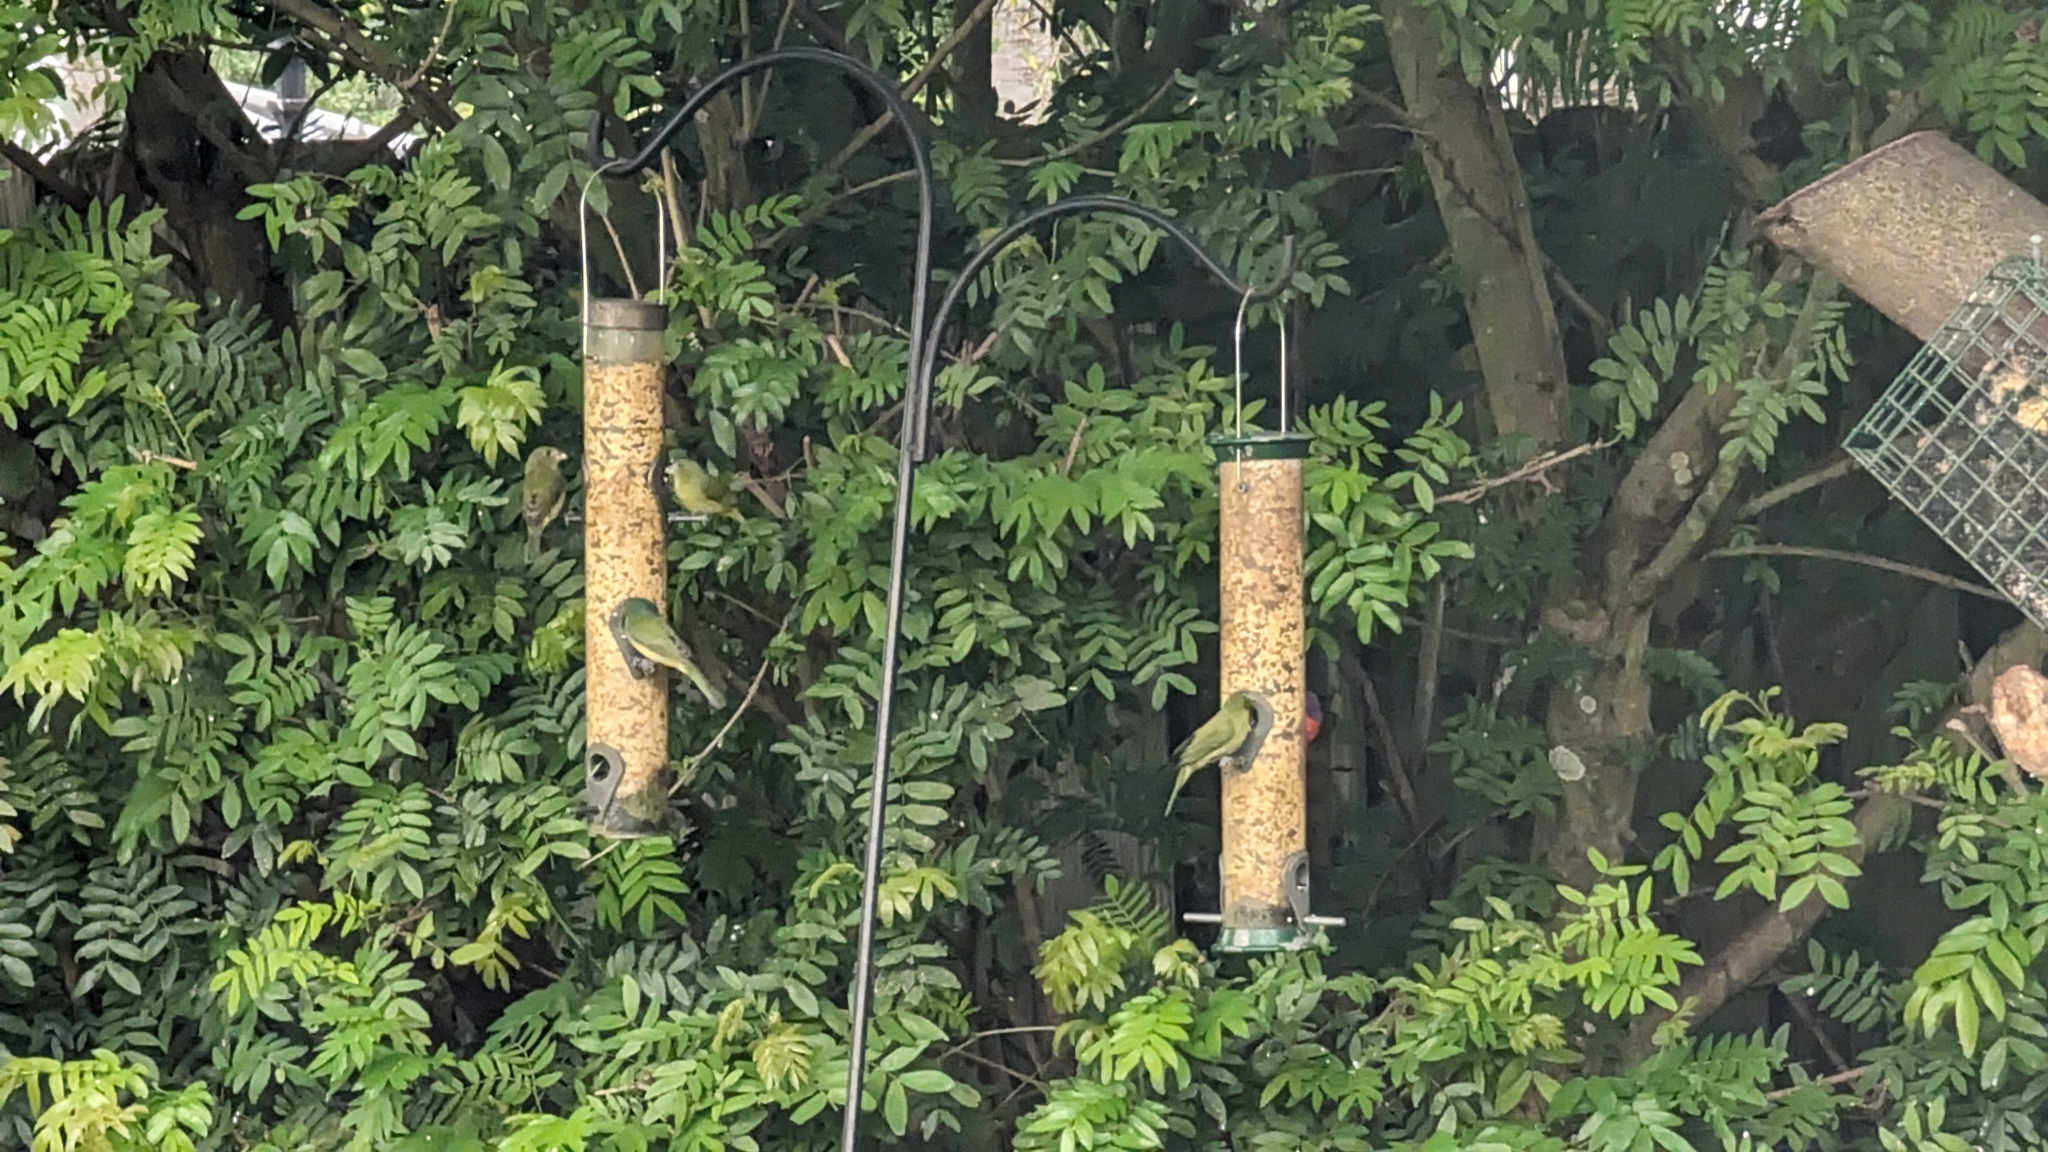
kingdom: Animalia
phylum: Chordata
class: Aves
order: Passeriformes
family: Cardinalidae
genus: Passerina
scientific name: Passerina ciris
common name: Painted bunting
